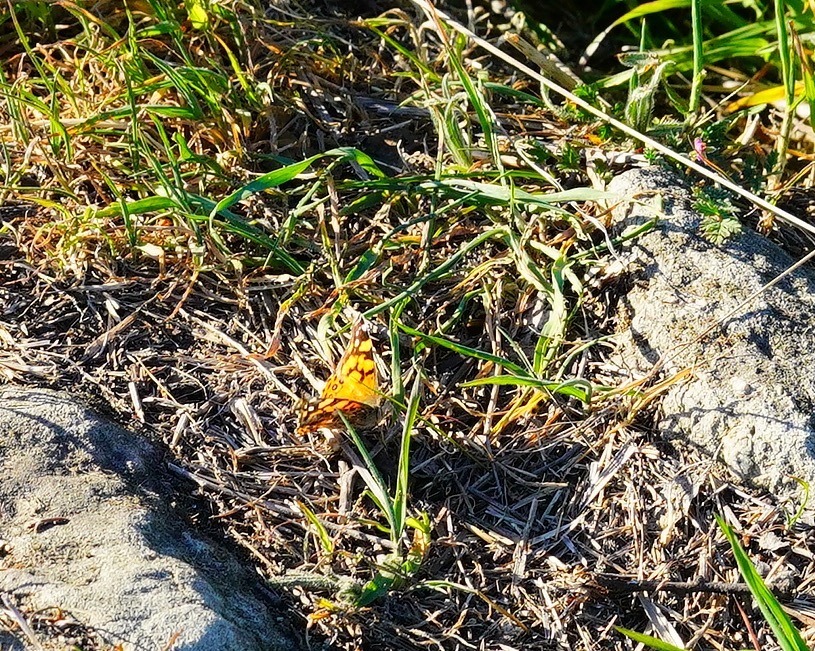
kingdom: Animalia
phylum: Arthropoda
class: Insecta
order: Lepidoptera
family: Nymphalidae
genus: Vanessa
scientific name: Vanessa annabella
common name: West coast lady
